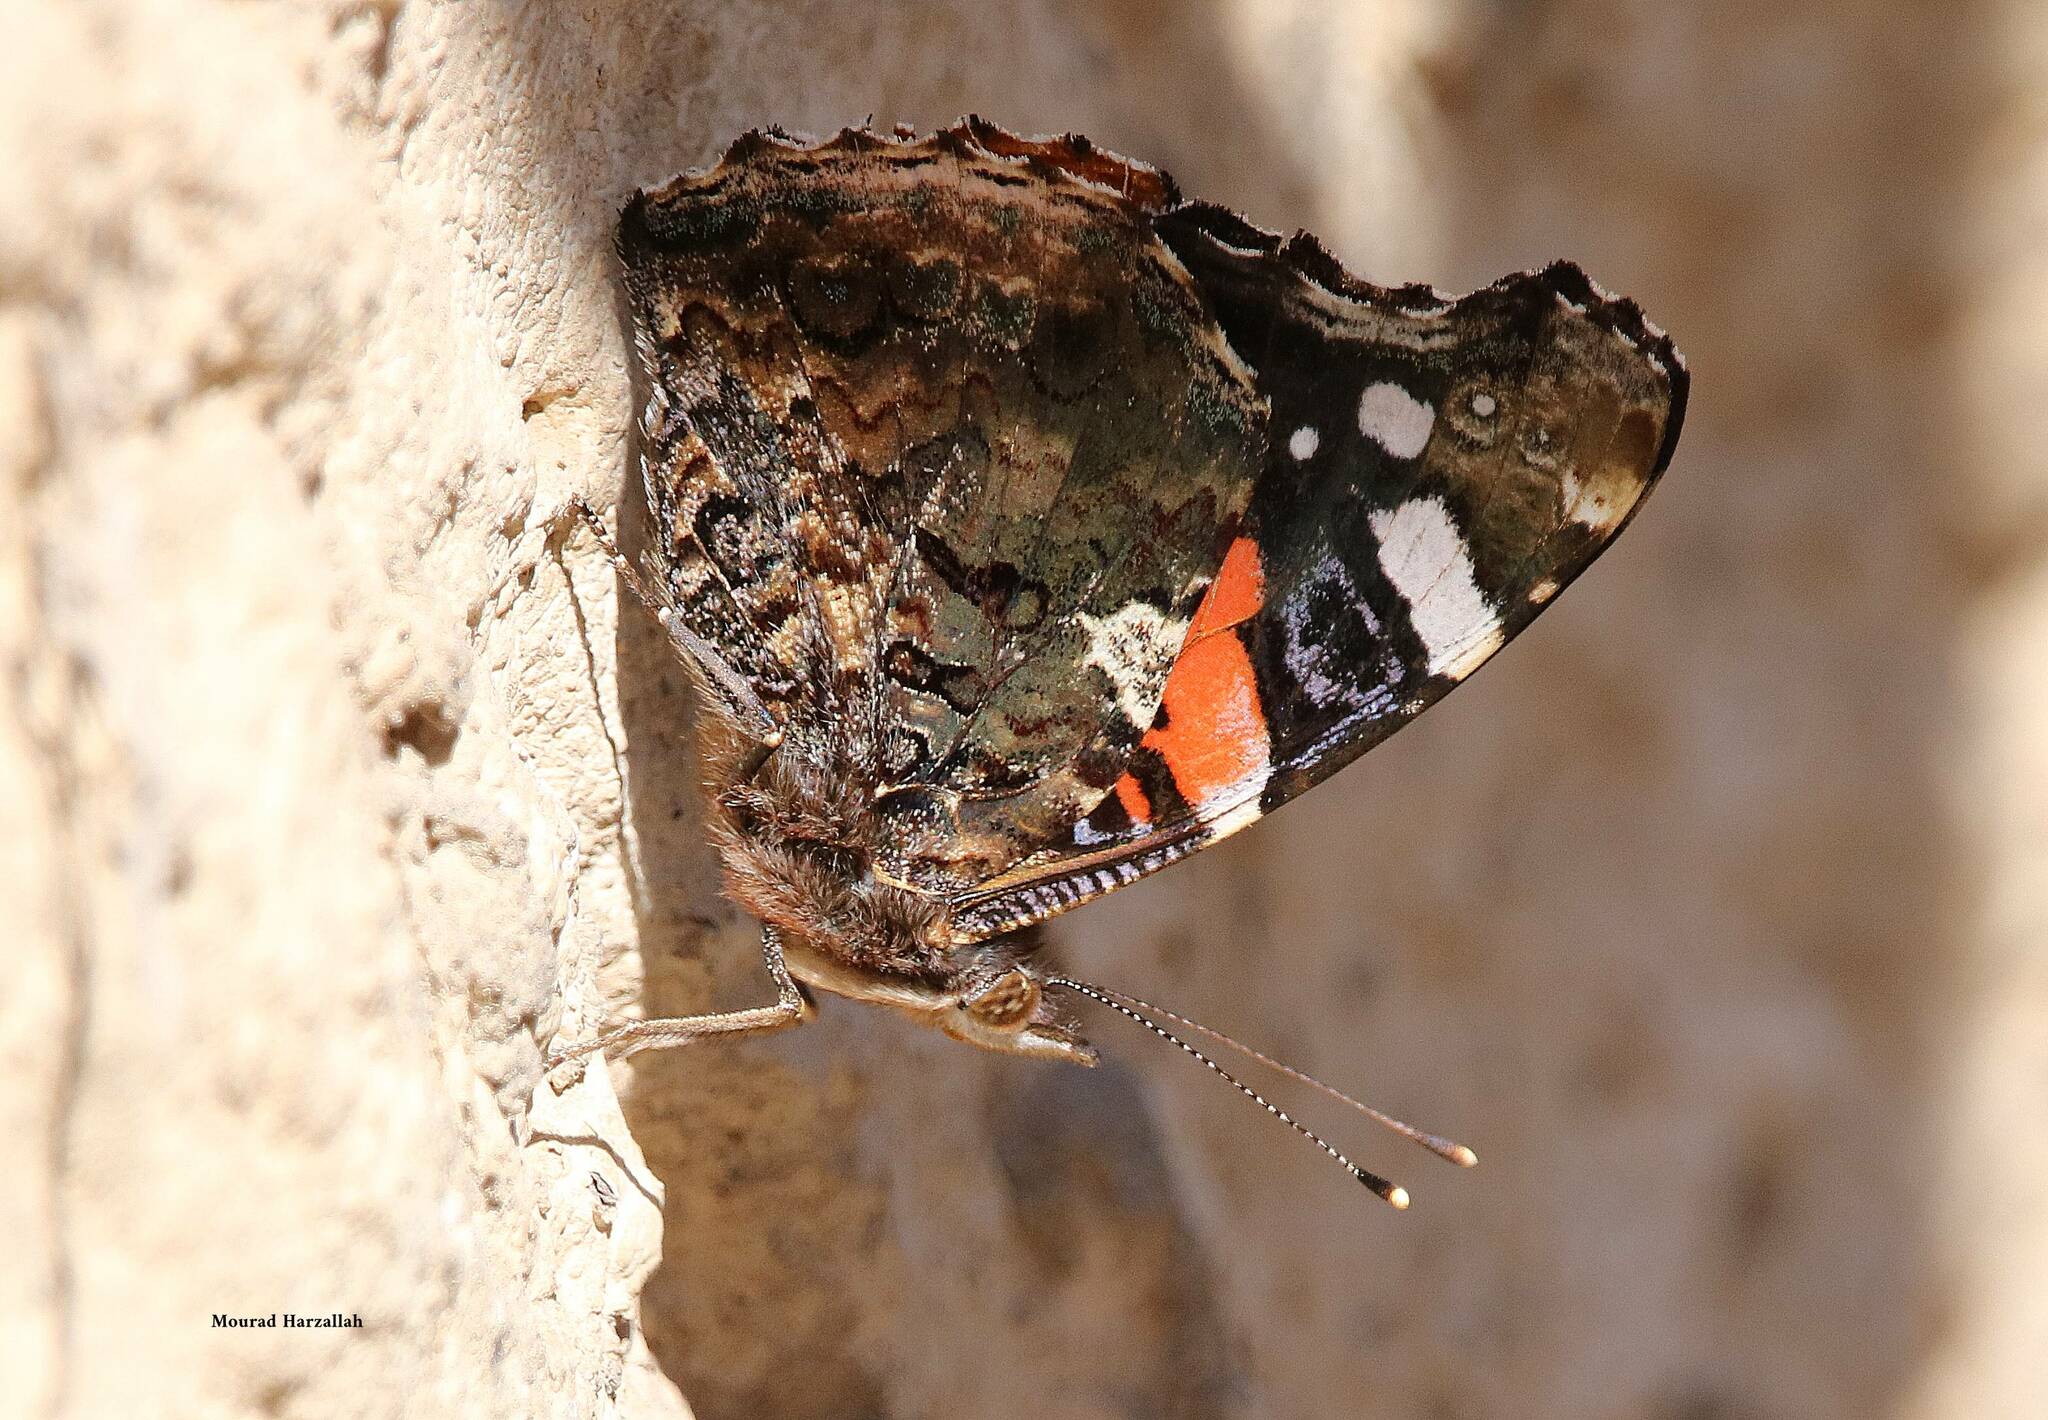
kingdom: Animalia
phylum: Arthropoda
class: Insecta
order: Lepidoptera
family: Nymphalidae
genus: Vanessa
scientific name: Vanessa atalanta
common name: Red admiral
